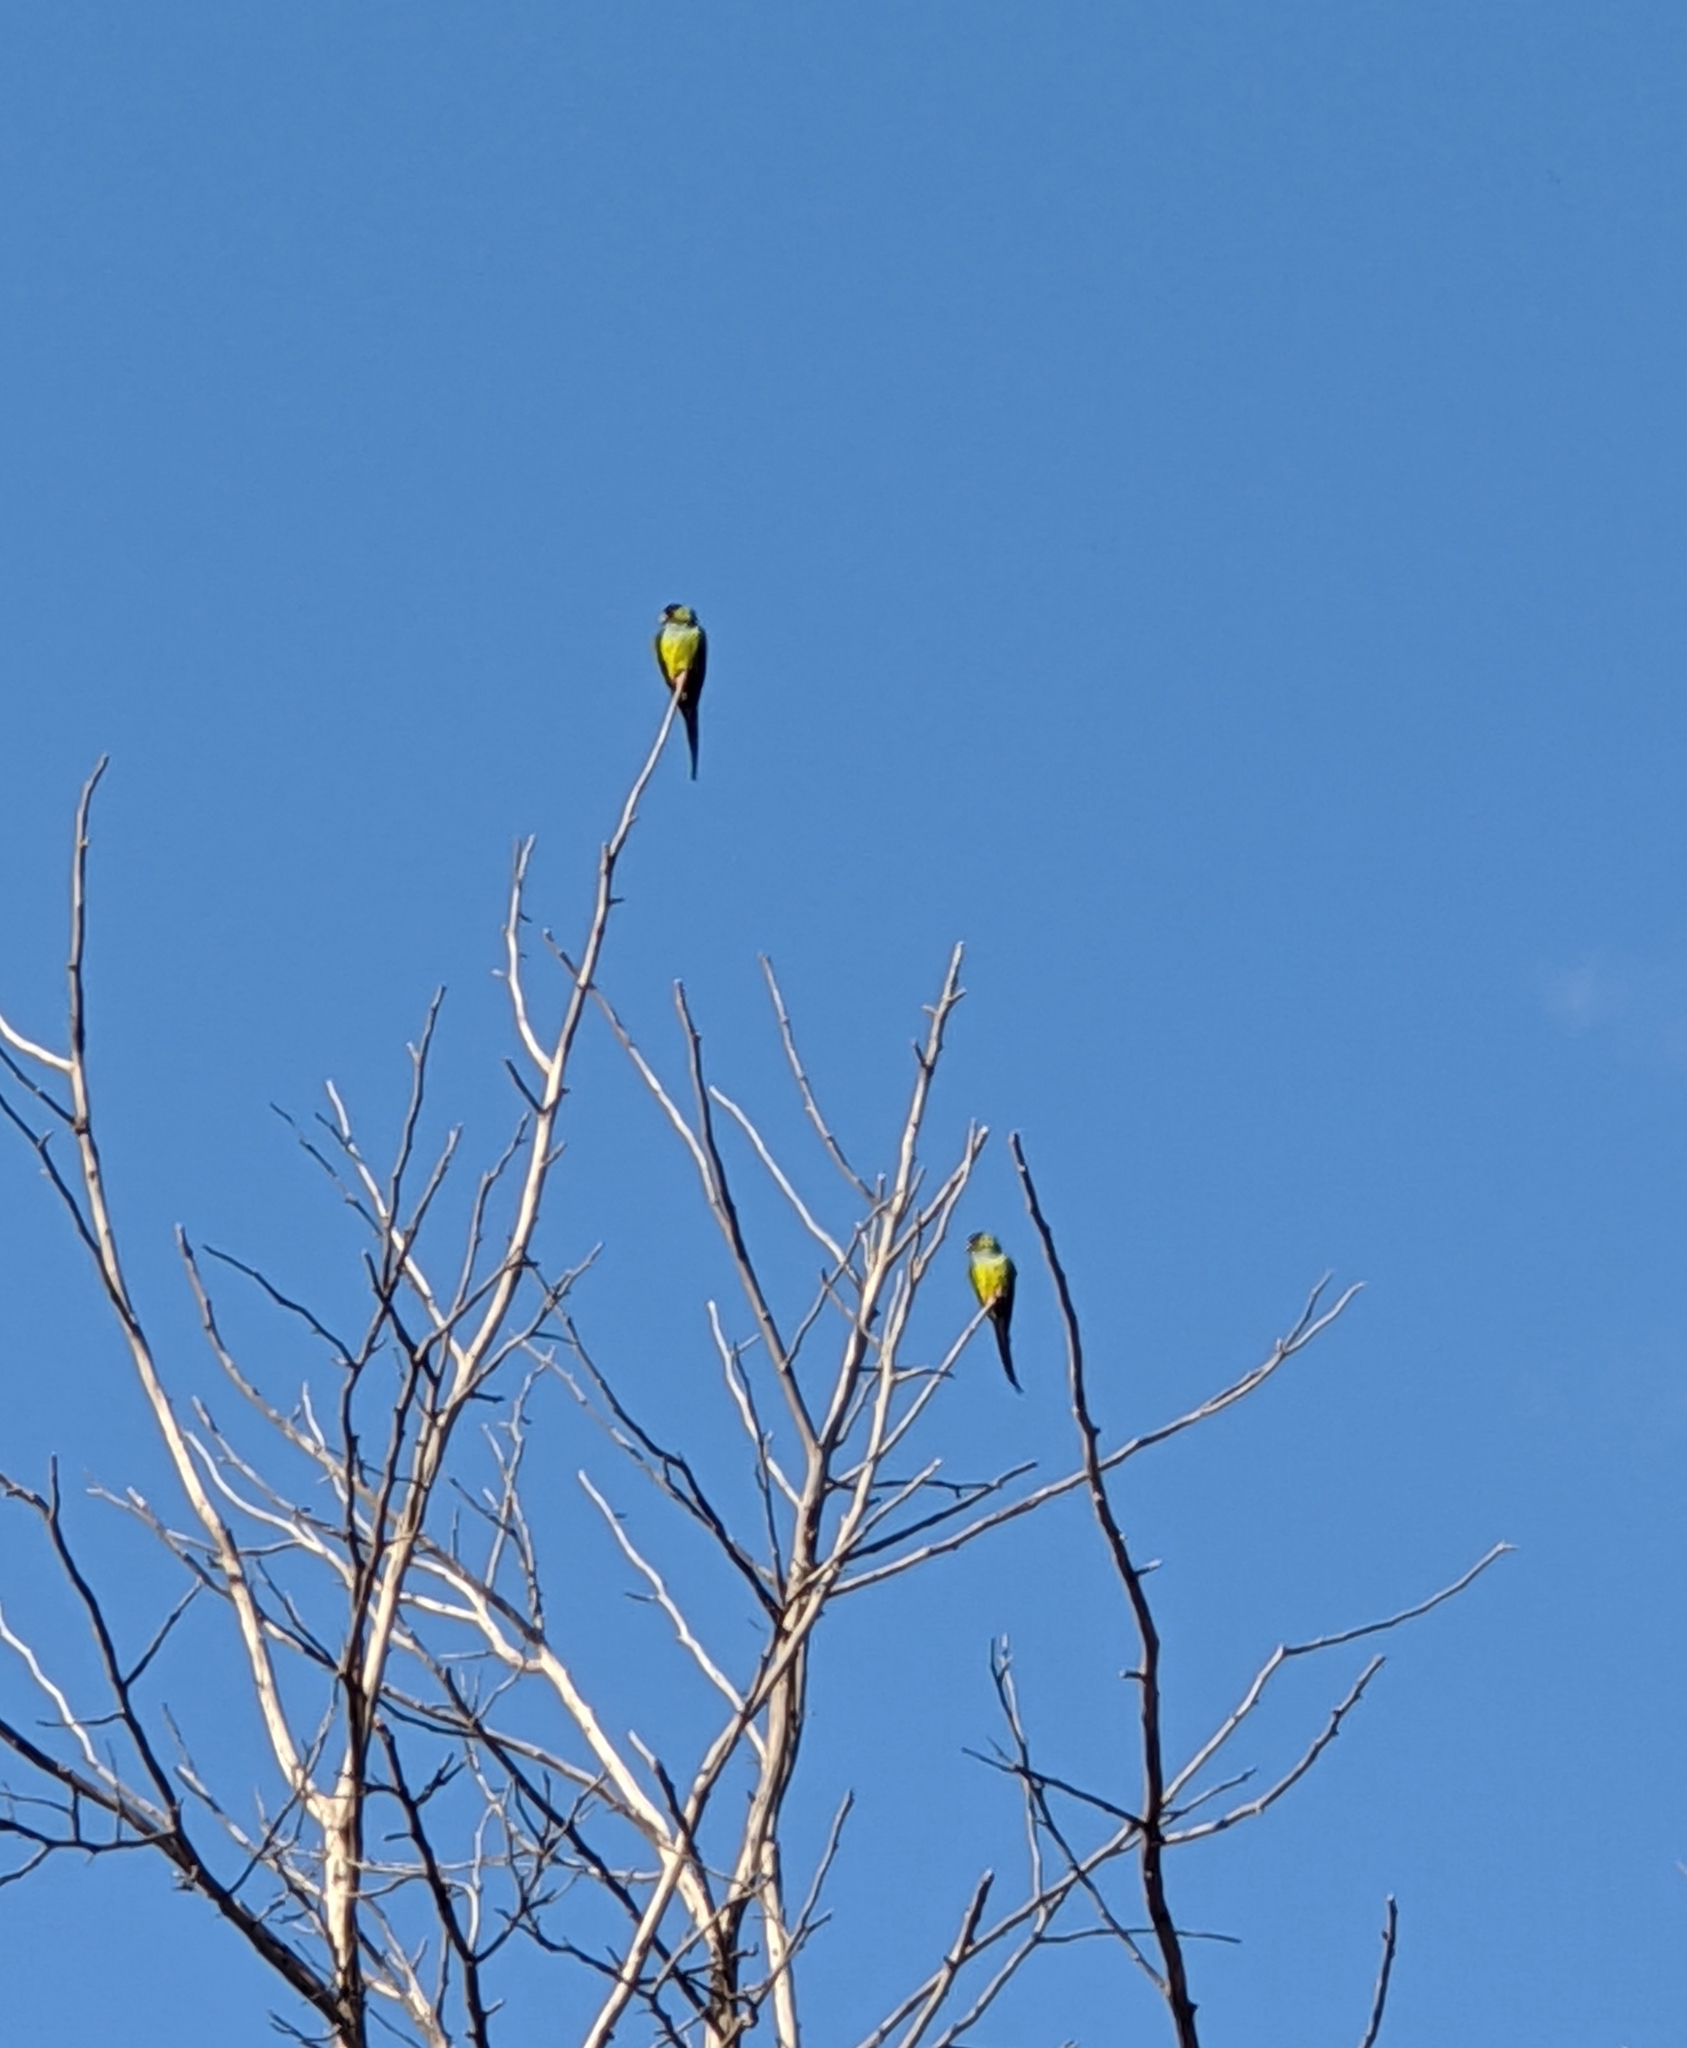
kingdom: Animalia
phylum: Chordata
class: Aves
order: Psittaciformes
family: Psittacidae
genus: Nandayus
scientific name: Nandayus nenday
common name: Nanday parakeet
